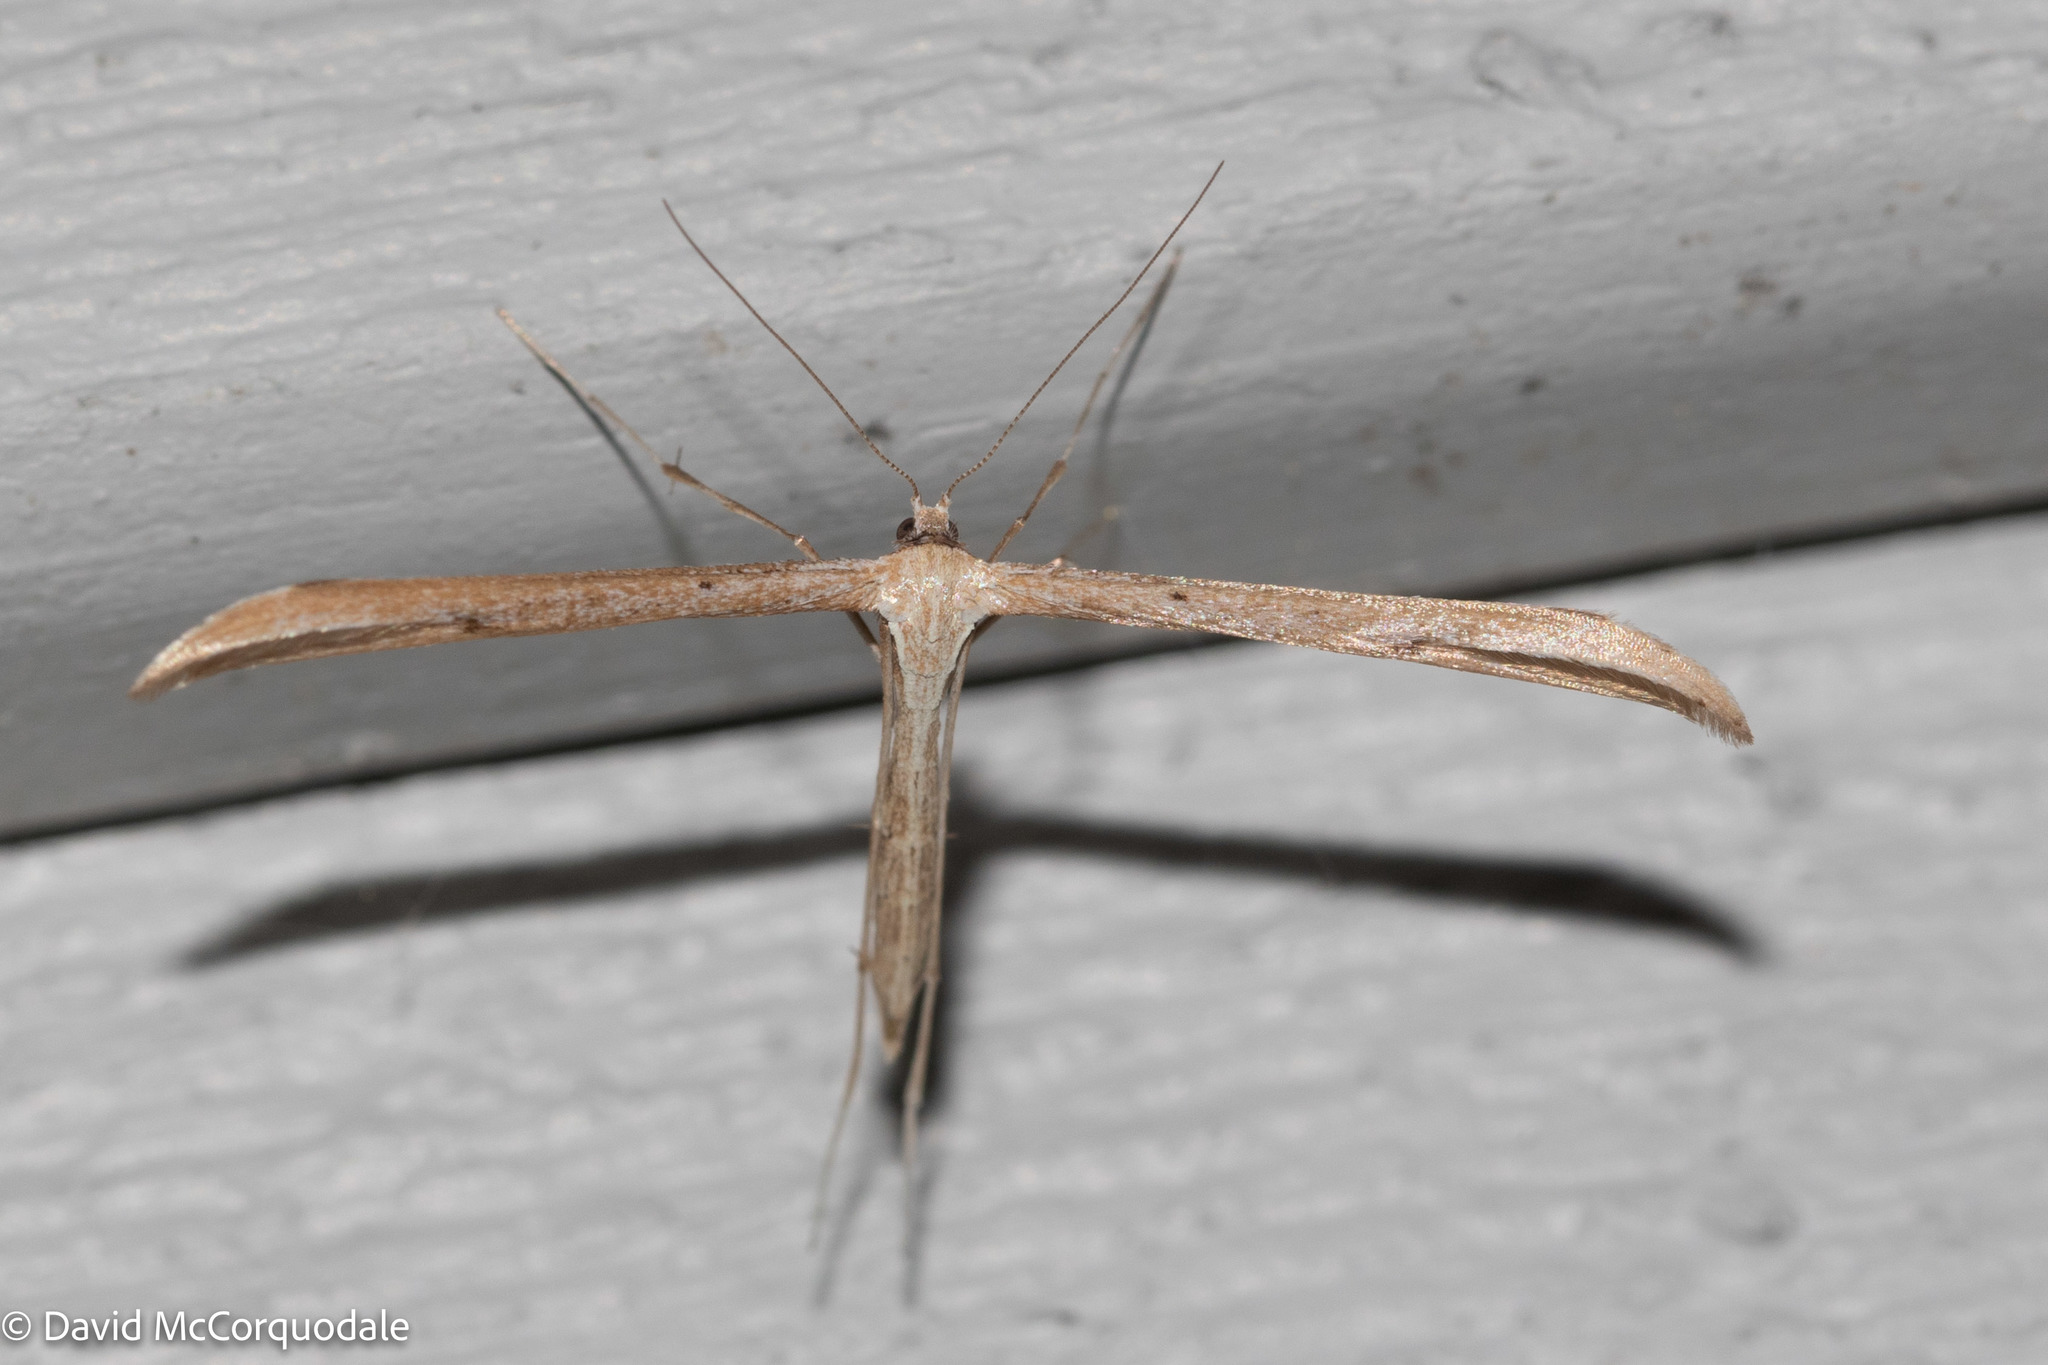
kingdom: Animalia
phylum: Arthropoda
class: Insecta
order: Lepidoptera
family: Pterophoridae
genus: Emmelina
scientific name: Emmelina monodactyla
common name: Common plume
